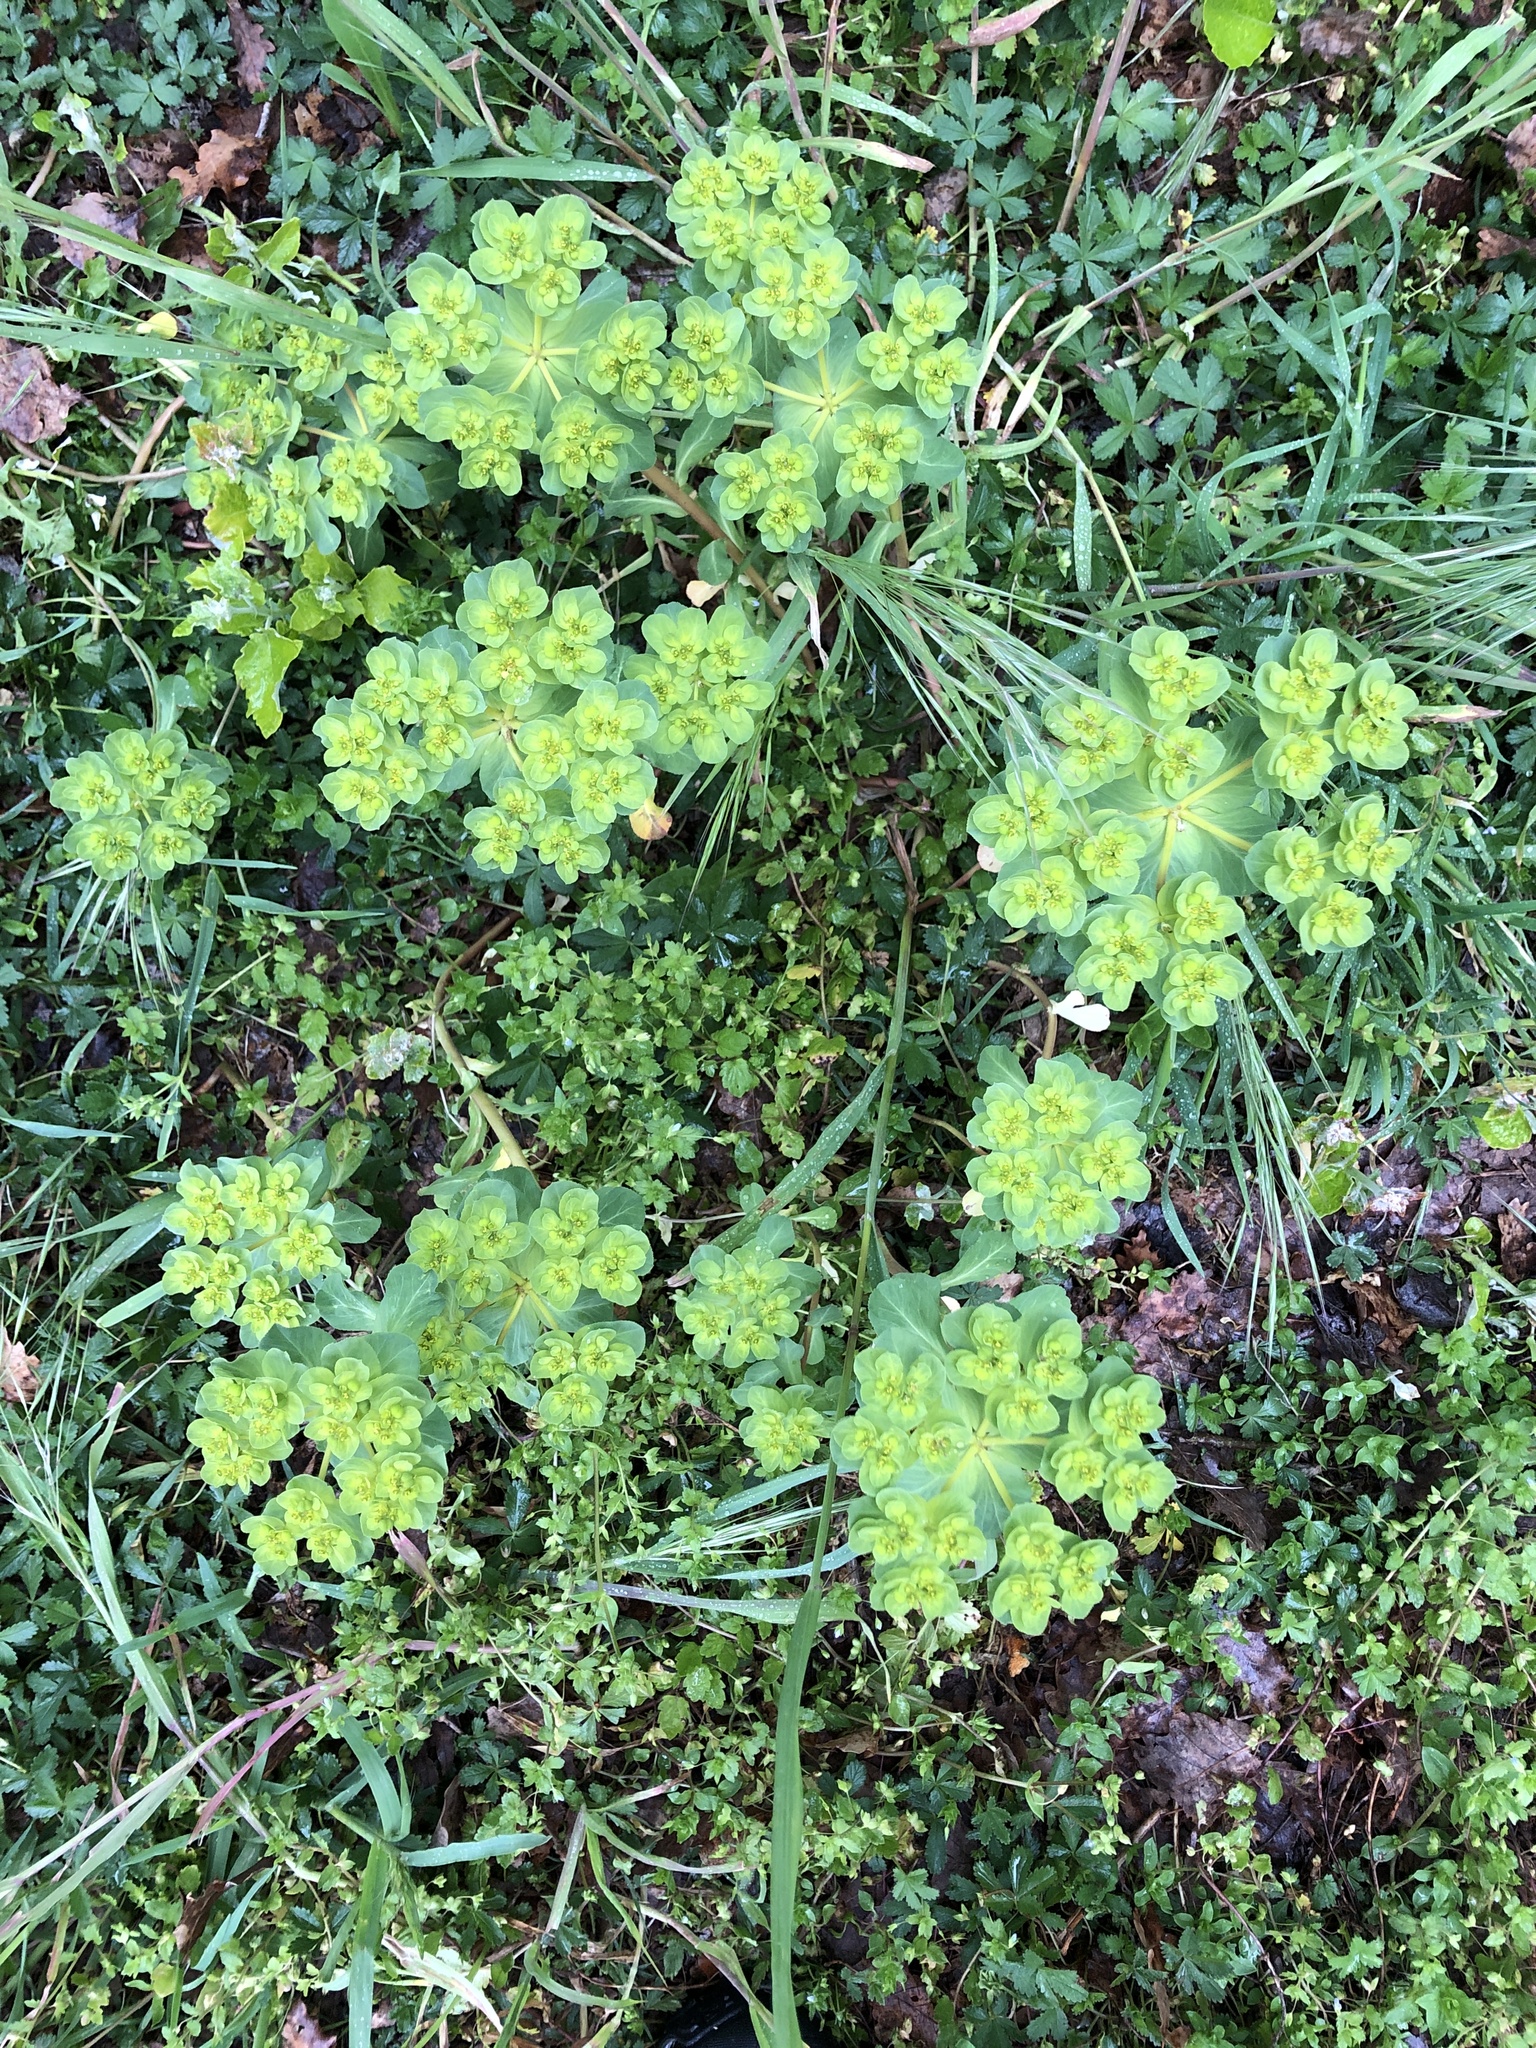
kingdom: Plantae
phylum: Tracheophyta
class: Magnoliopsida
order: Malpighiales
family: Euphorbiaceae
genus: Euphorbia
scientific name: Euphorbia helioscopia
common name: Sun spurge
